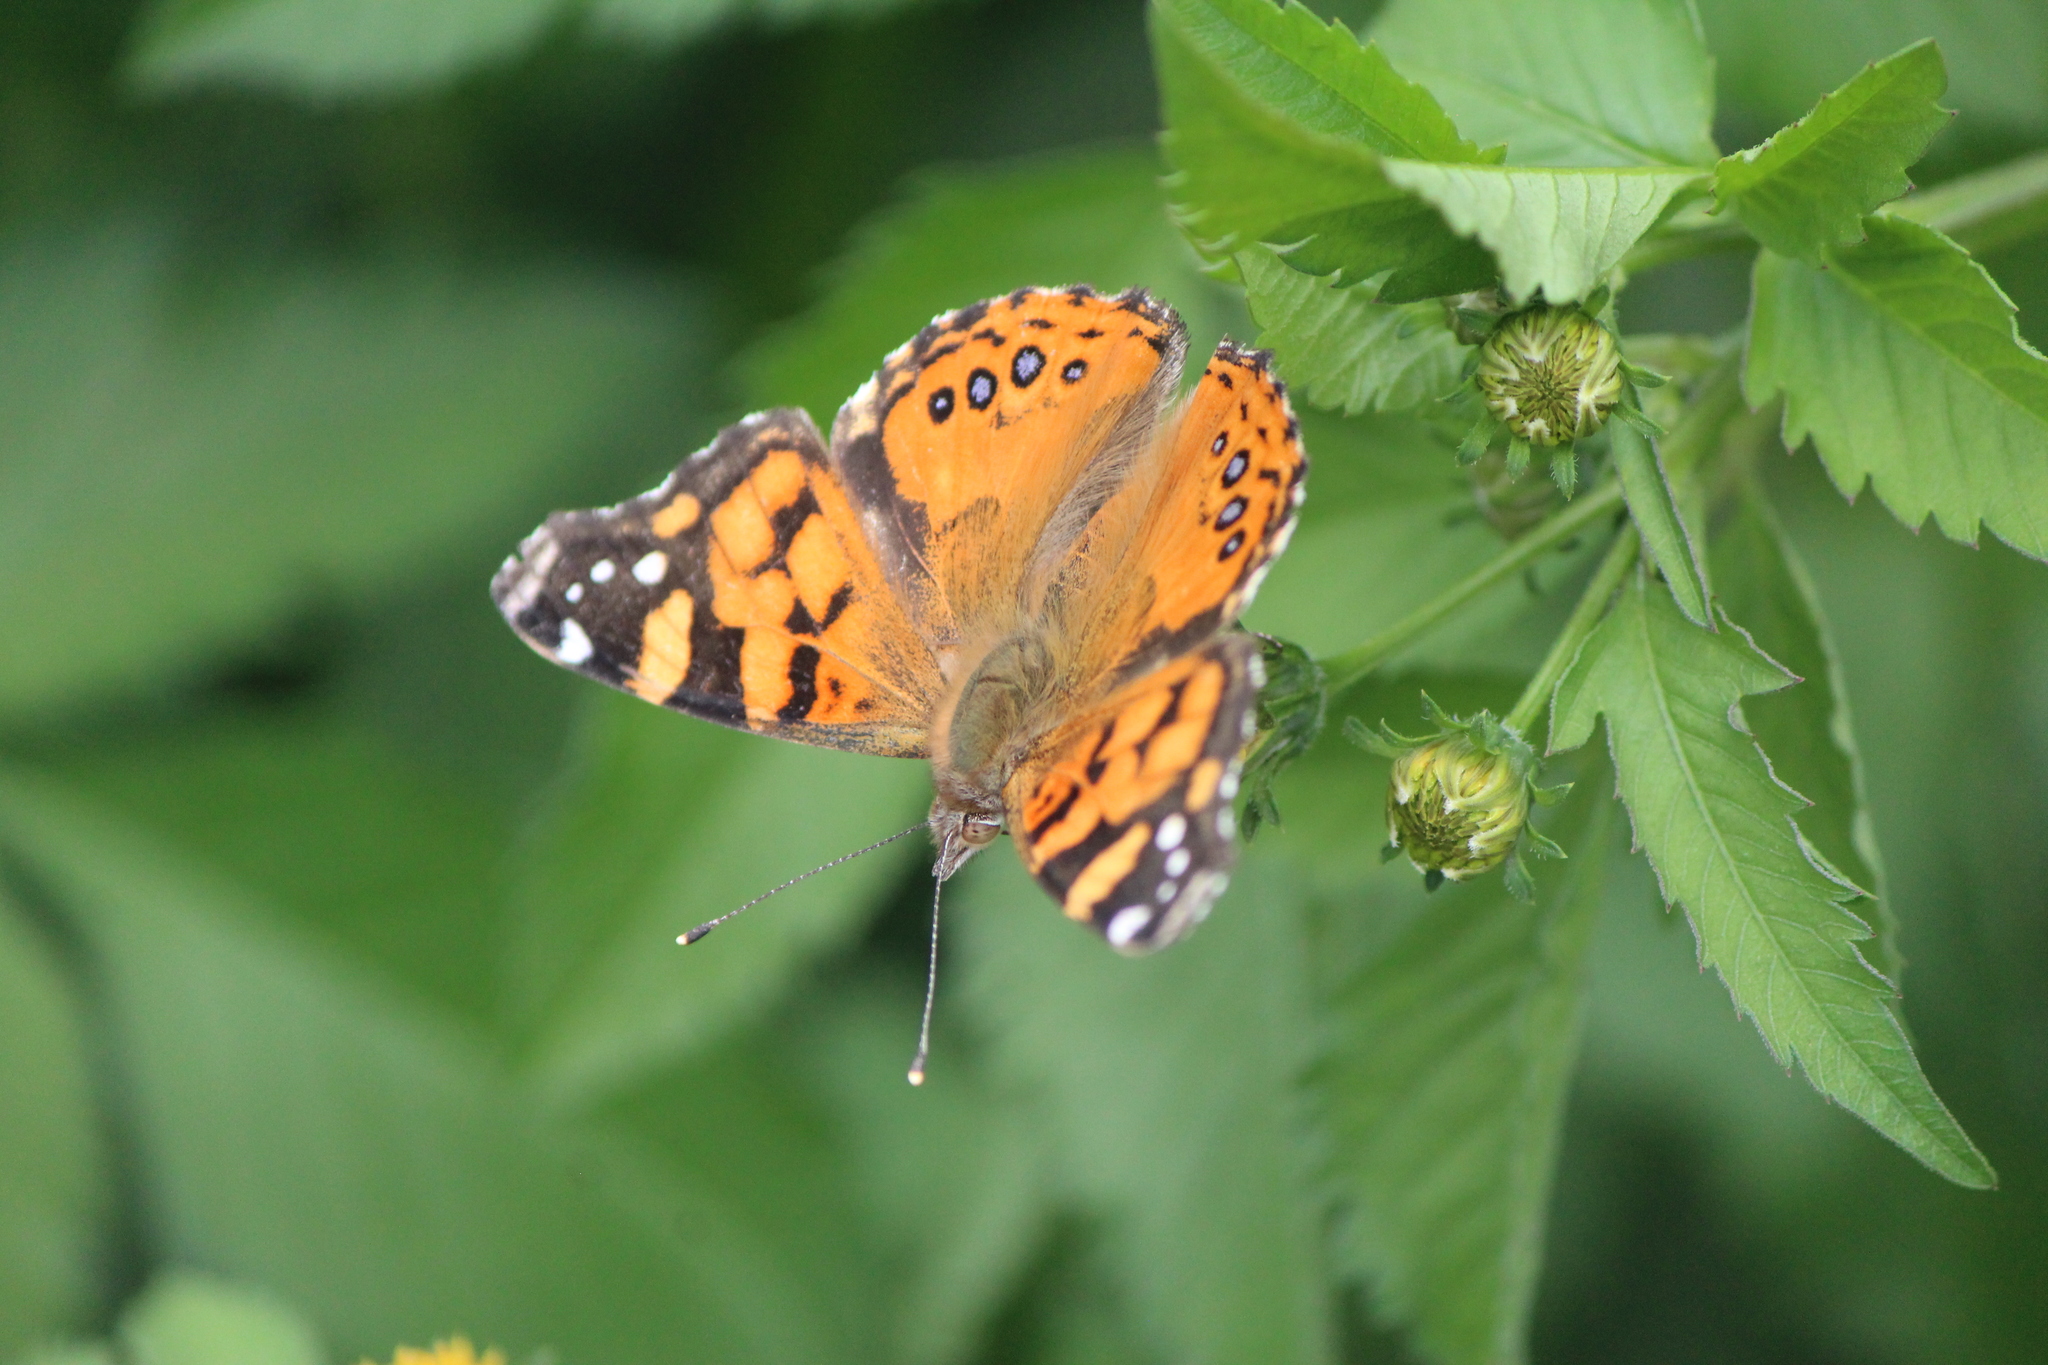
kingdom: Animalia
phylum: Arthropoda
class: Insecta
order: Lepidoptera
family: Nymphalidae
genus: Vanessa
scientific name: Vanessa annabella
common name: West coast lady
